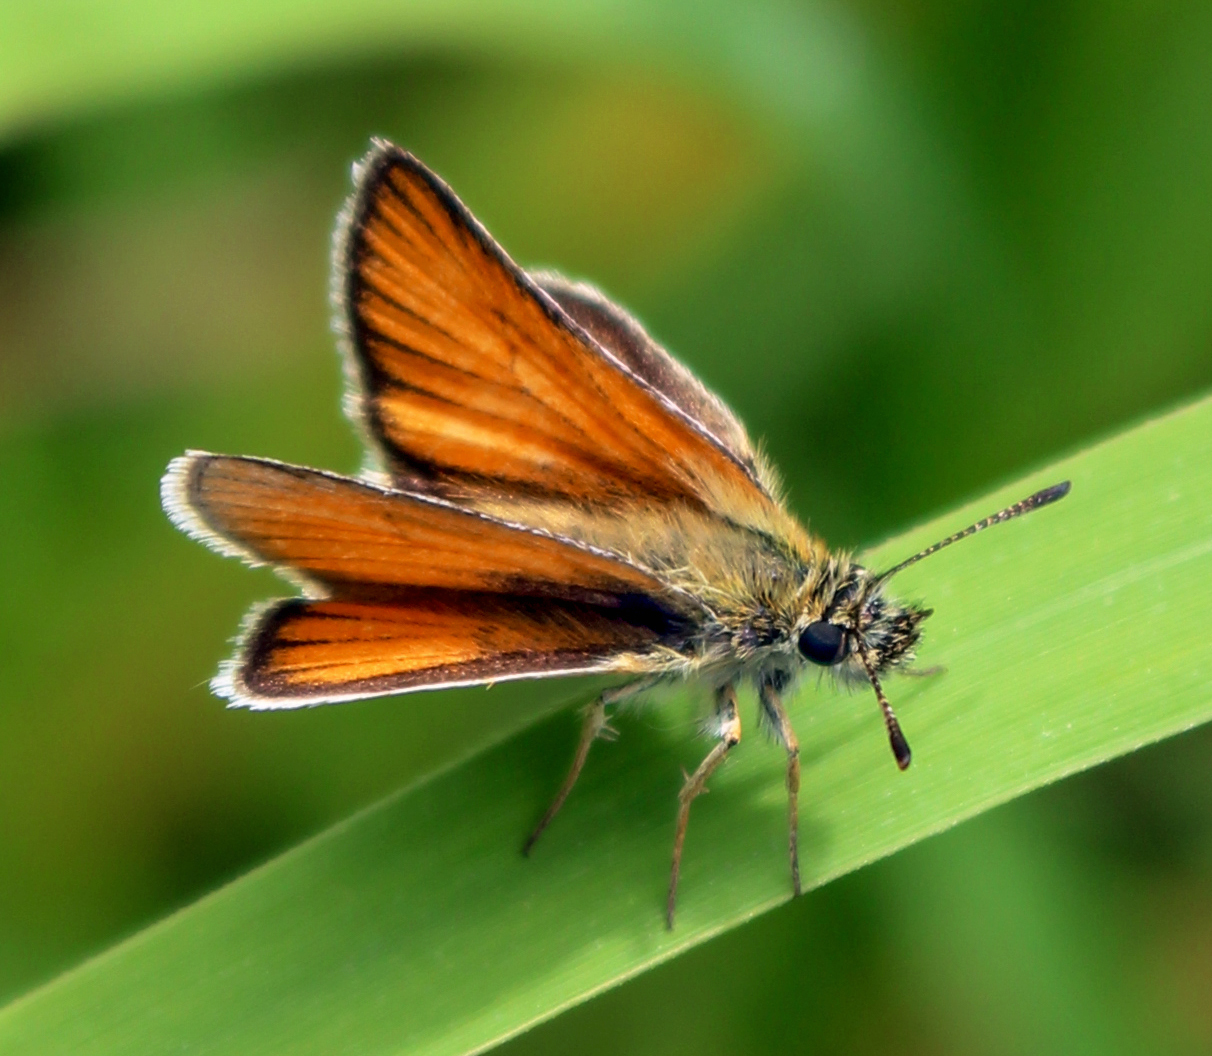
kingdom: Animalia
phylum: Arthropoda
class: Insecta
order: Lepidoptera
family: Hesperiidae
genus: Thymelicus
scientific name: Thymelicus lineola
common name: Essex skipper
